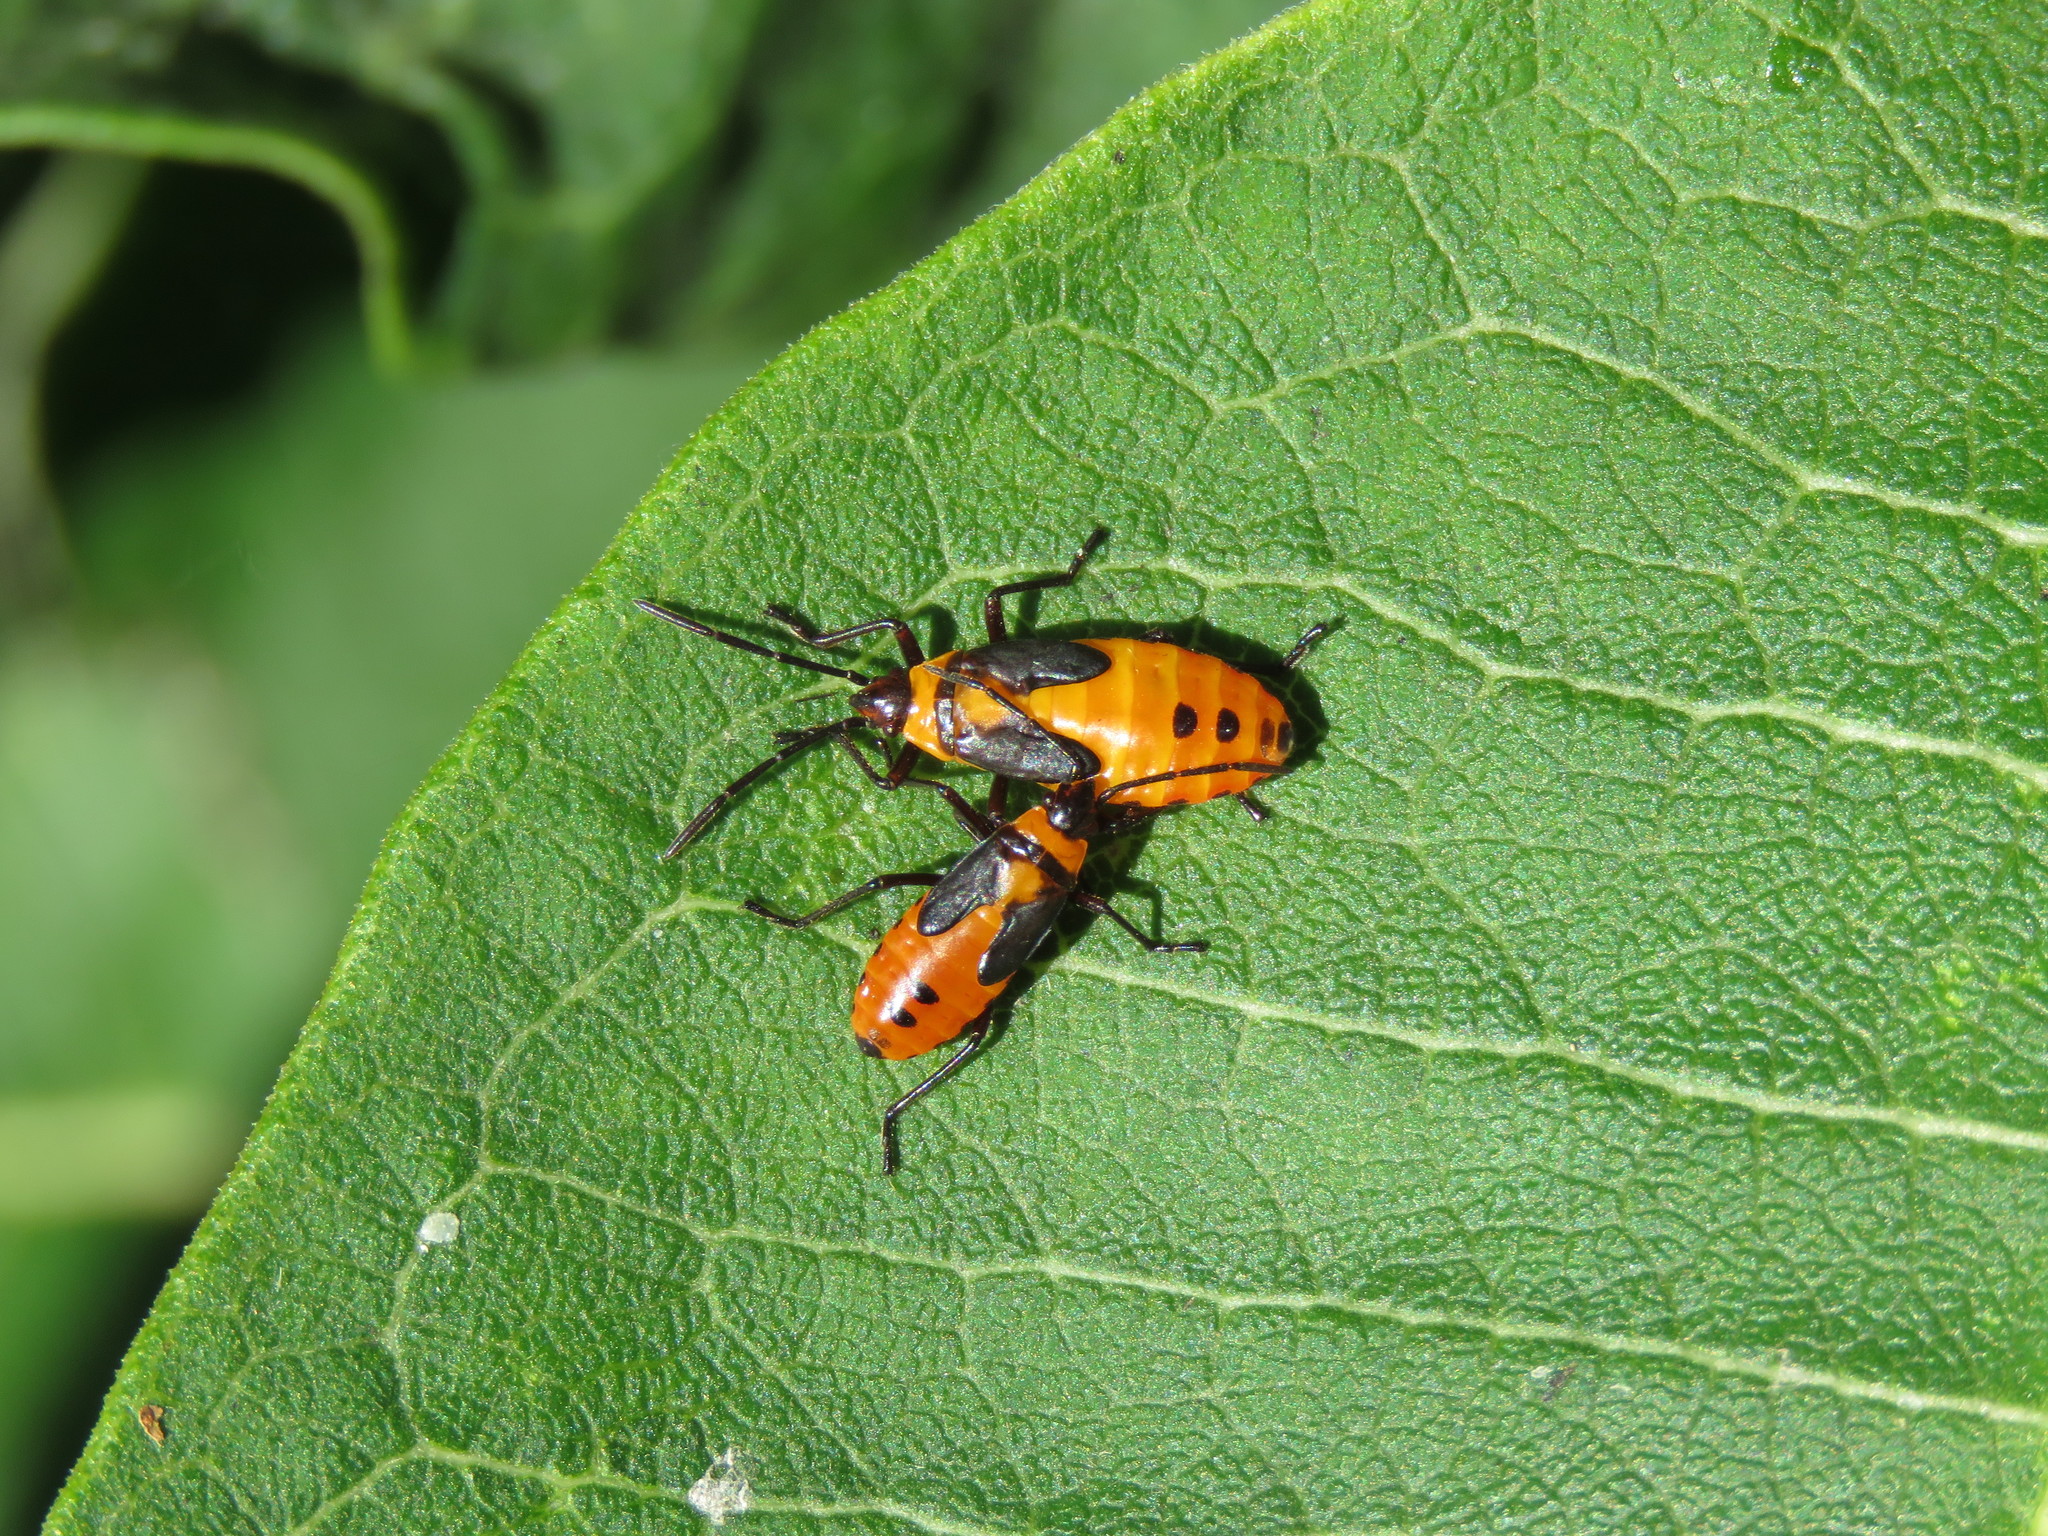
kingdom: Animalia
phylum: Arthropoda
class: Insecta
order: Hemiptera
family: Lygaeidae
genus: Oncopeltus
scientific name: Oncopeltus fasciatus
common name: Large milkweed bug
